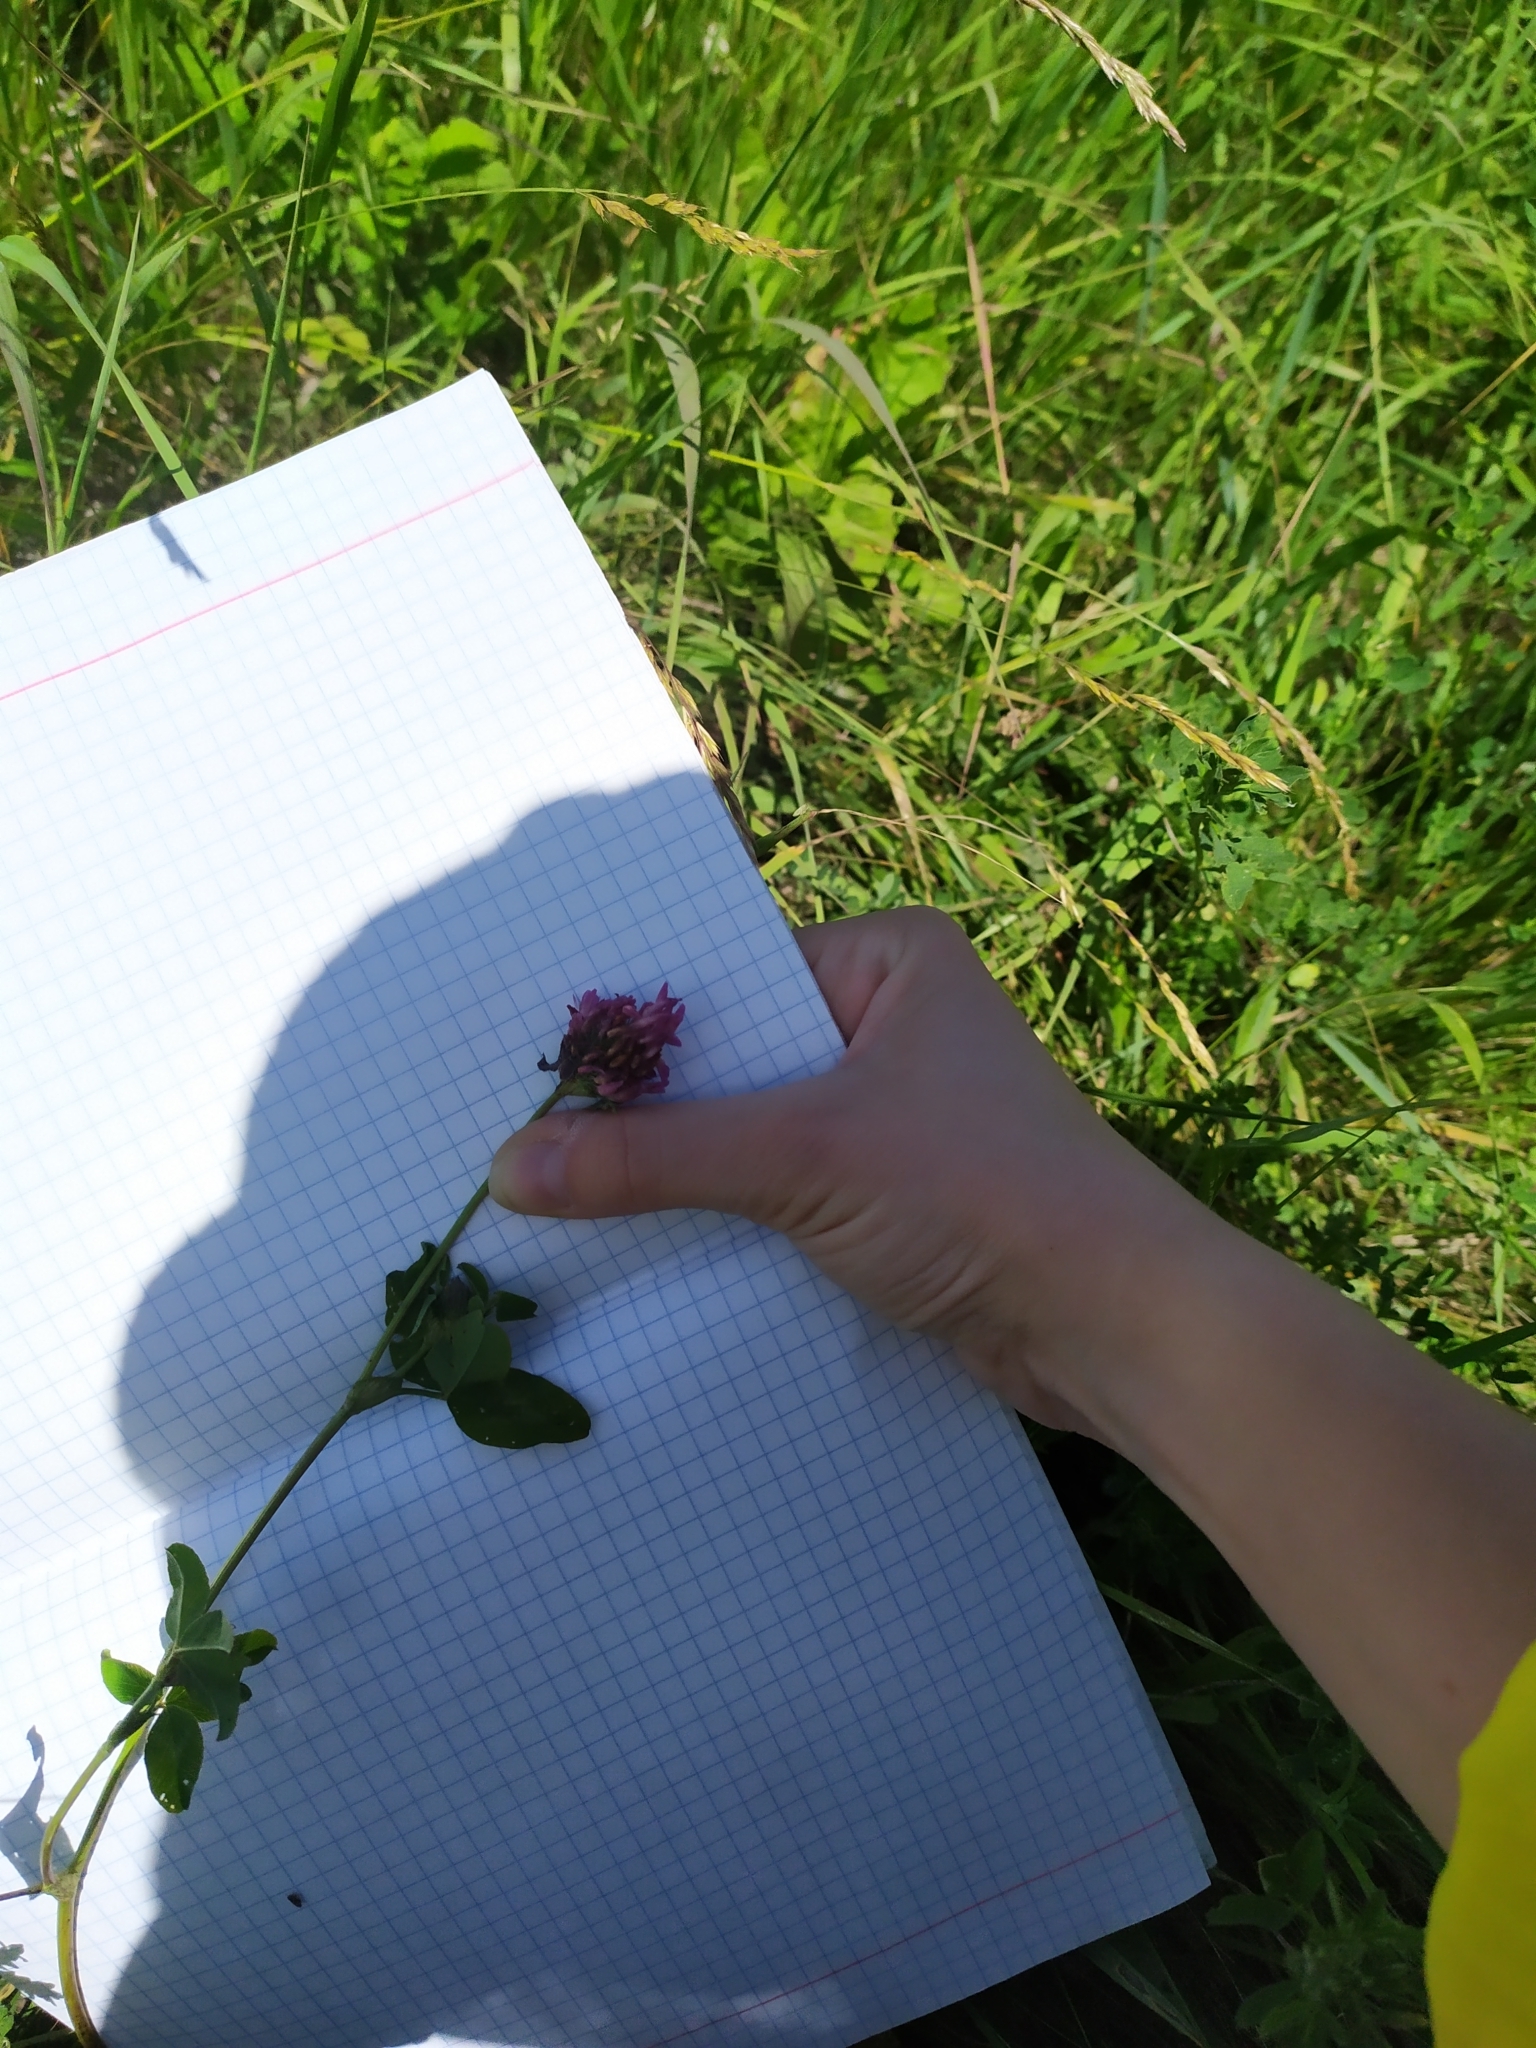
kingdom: Plantae
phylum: Tracheophyta
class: Magnoliopsida
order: Fabales
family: Fabaceae
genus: Trifolium
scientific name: Trifolium pratense
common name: Red clover
